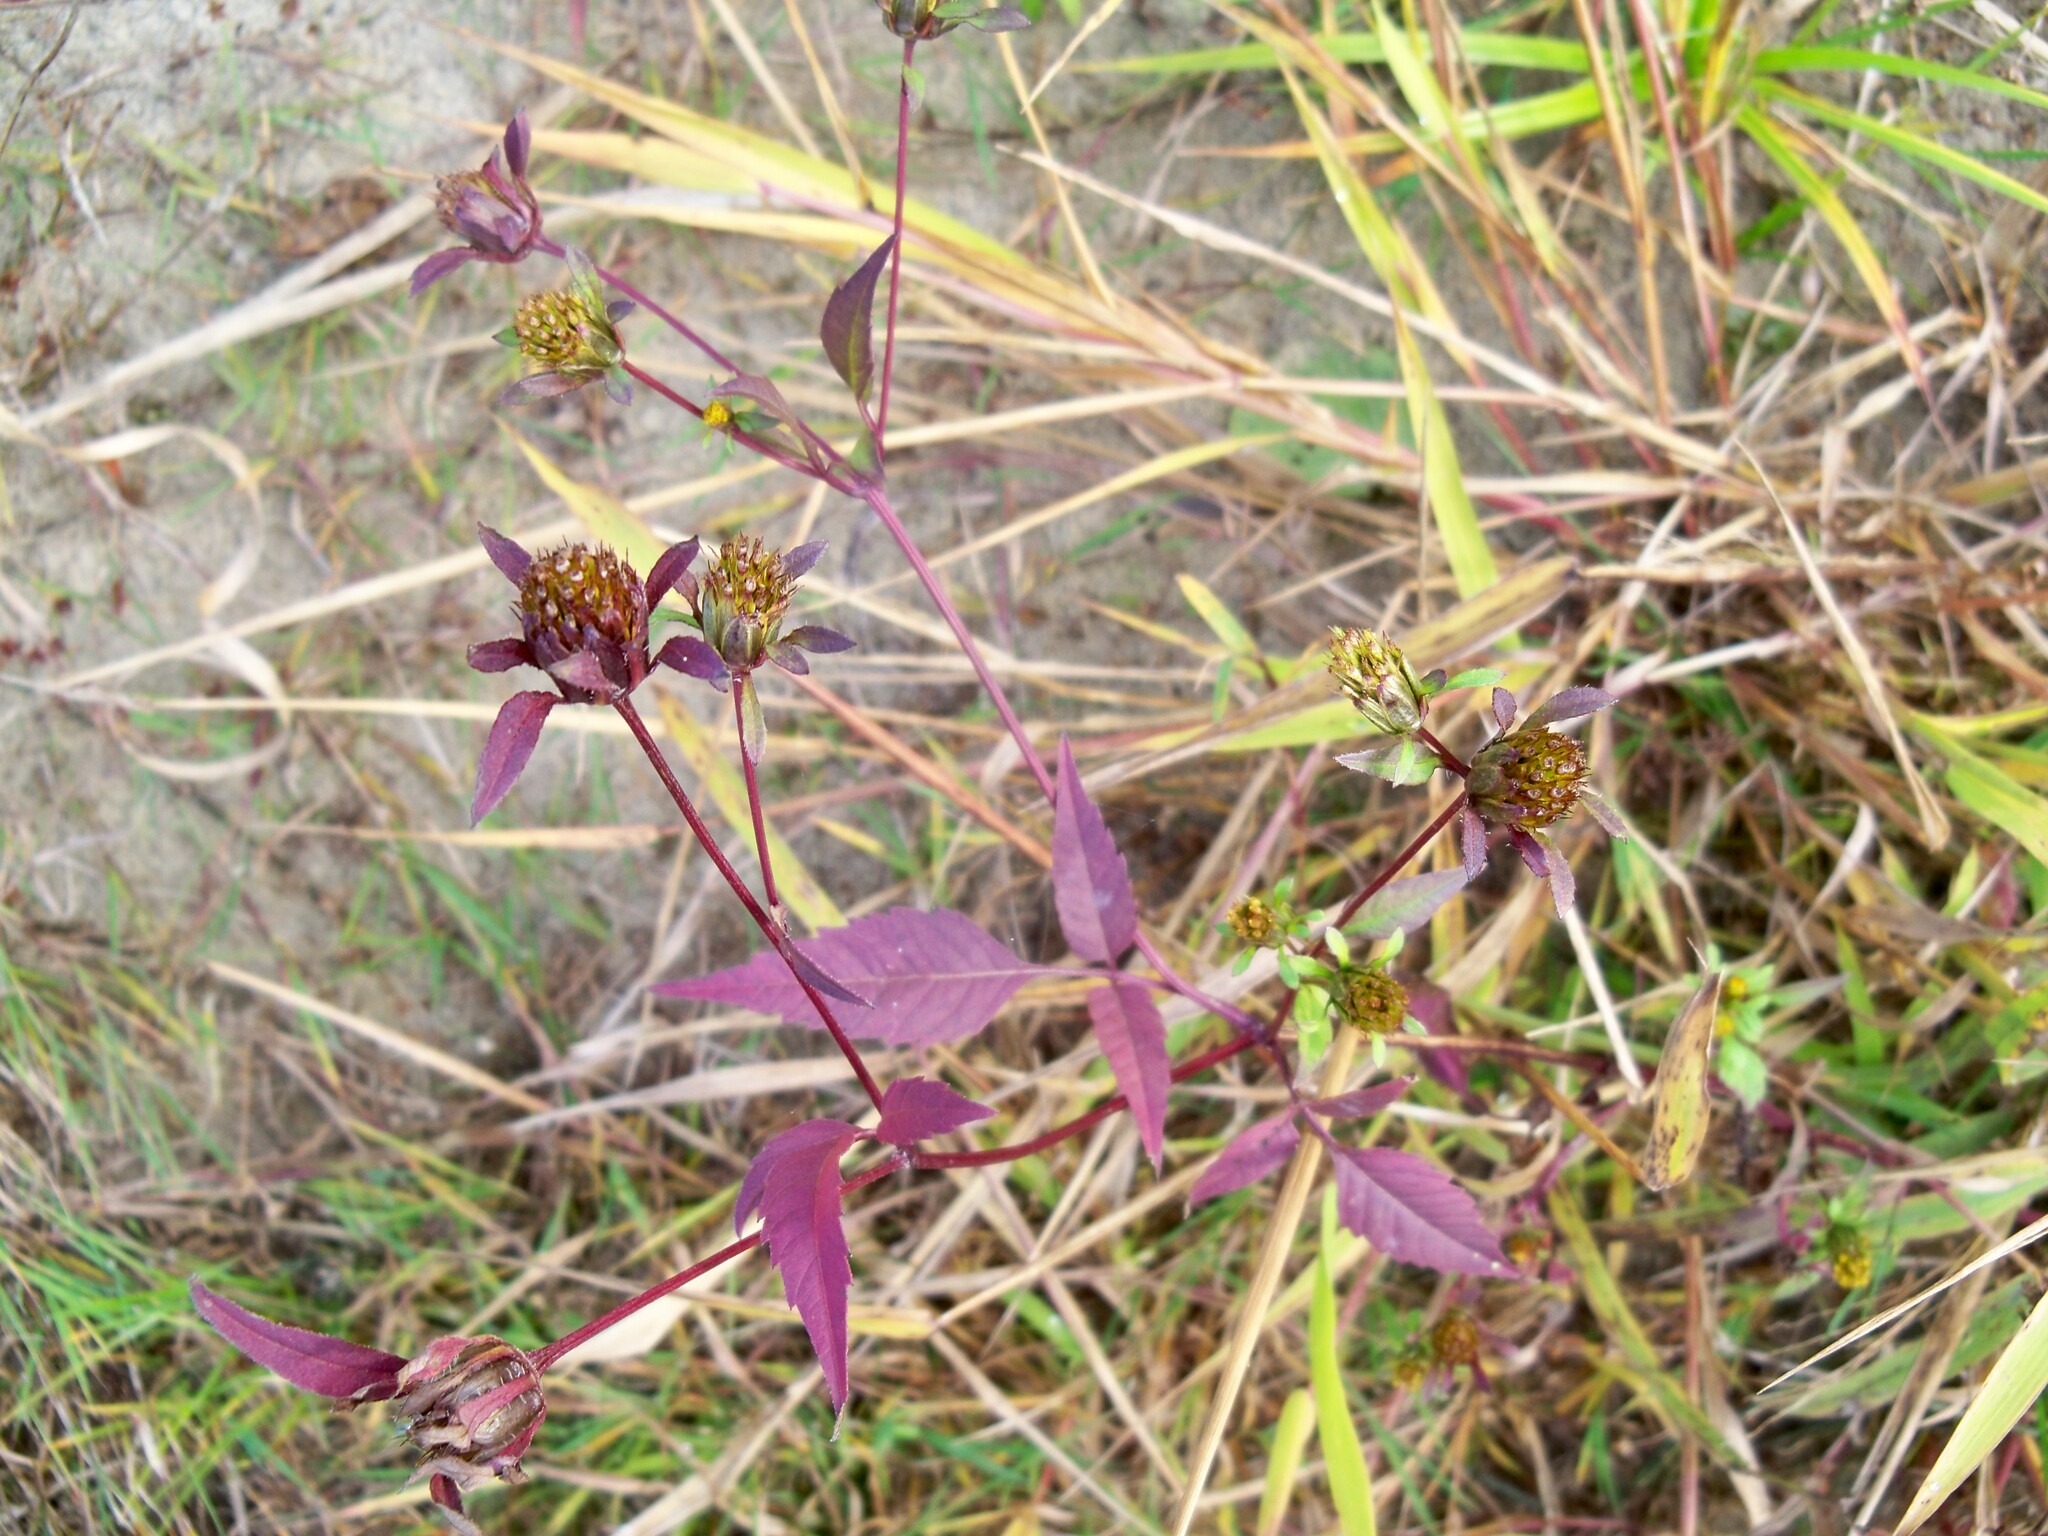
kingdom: Plantae
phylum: Tracheophyta
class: Magnoliopsida
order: Asterales
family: Asteraceae
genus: Bidens
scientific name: Bidens frondosa
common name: Beggarticks
